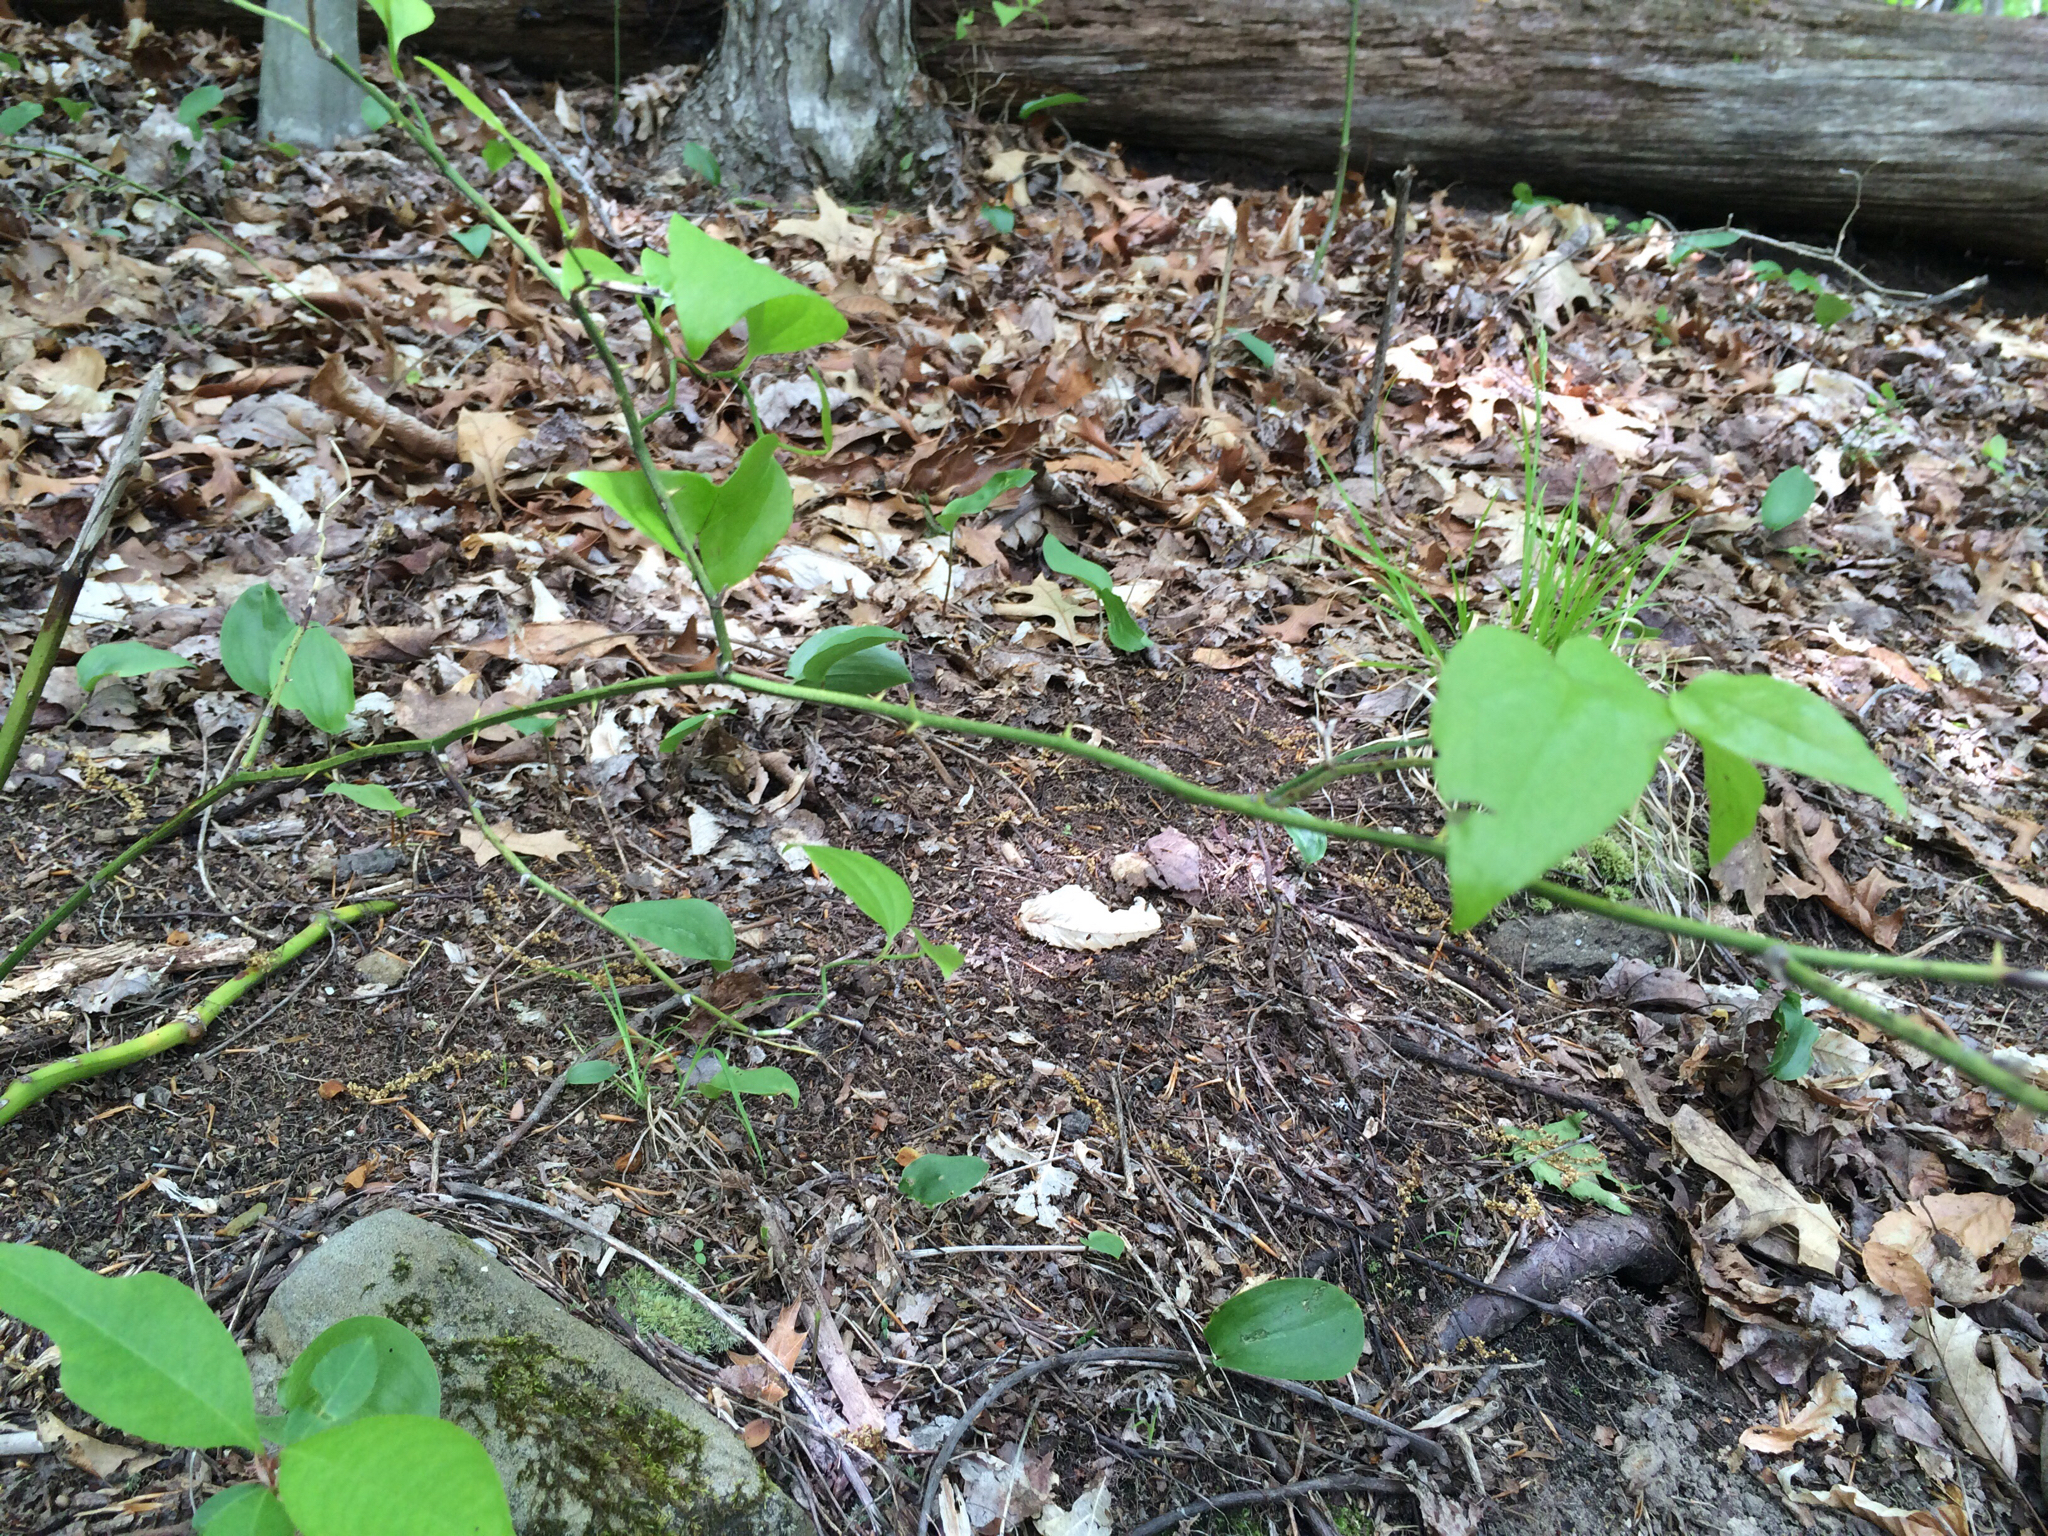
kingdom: Plantae
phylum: Tracheophyta
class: Liliopsida
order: Liliales
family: Smilacaceae
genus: Smilax
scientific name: Smilax rotundifolia
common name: Bullbriar
